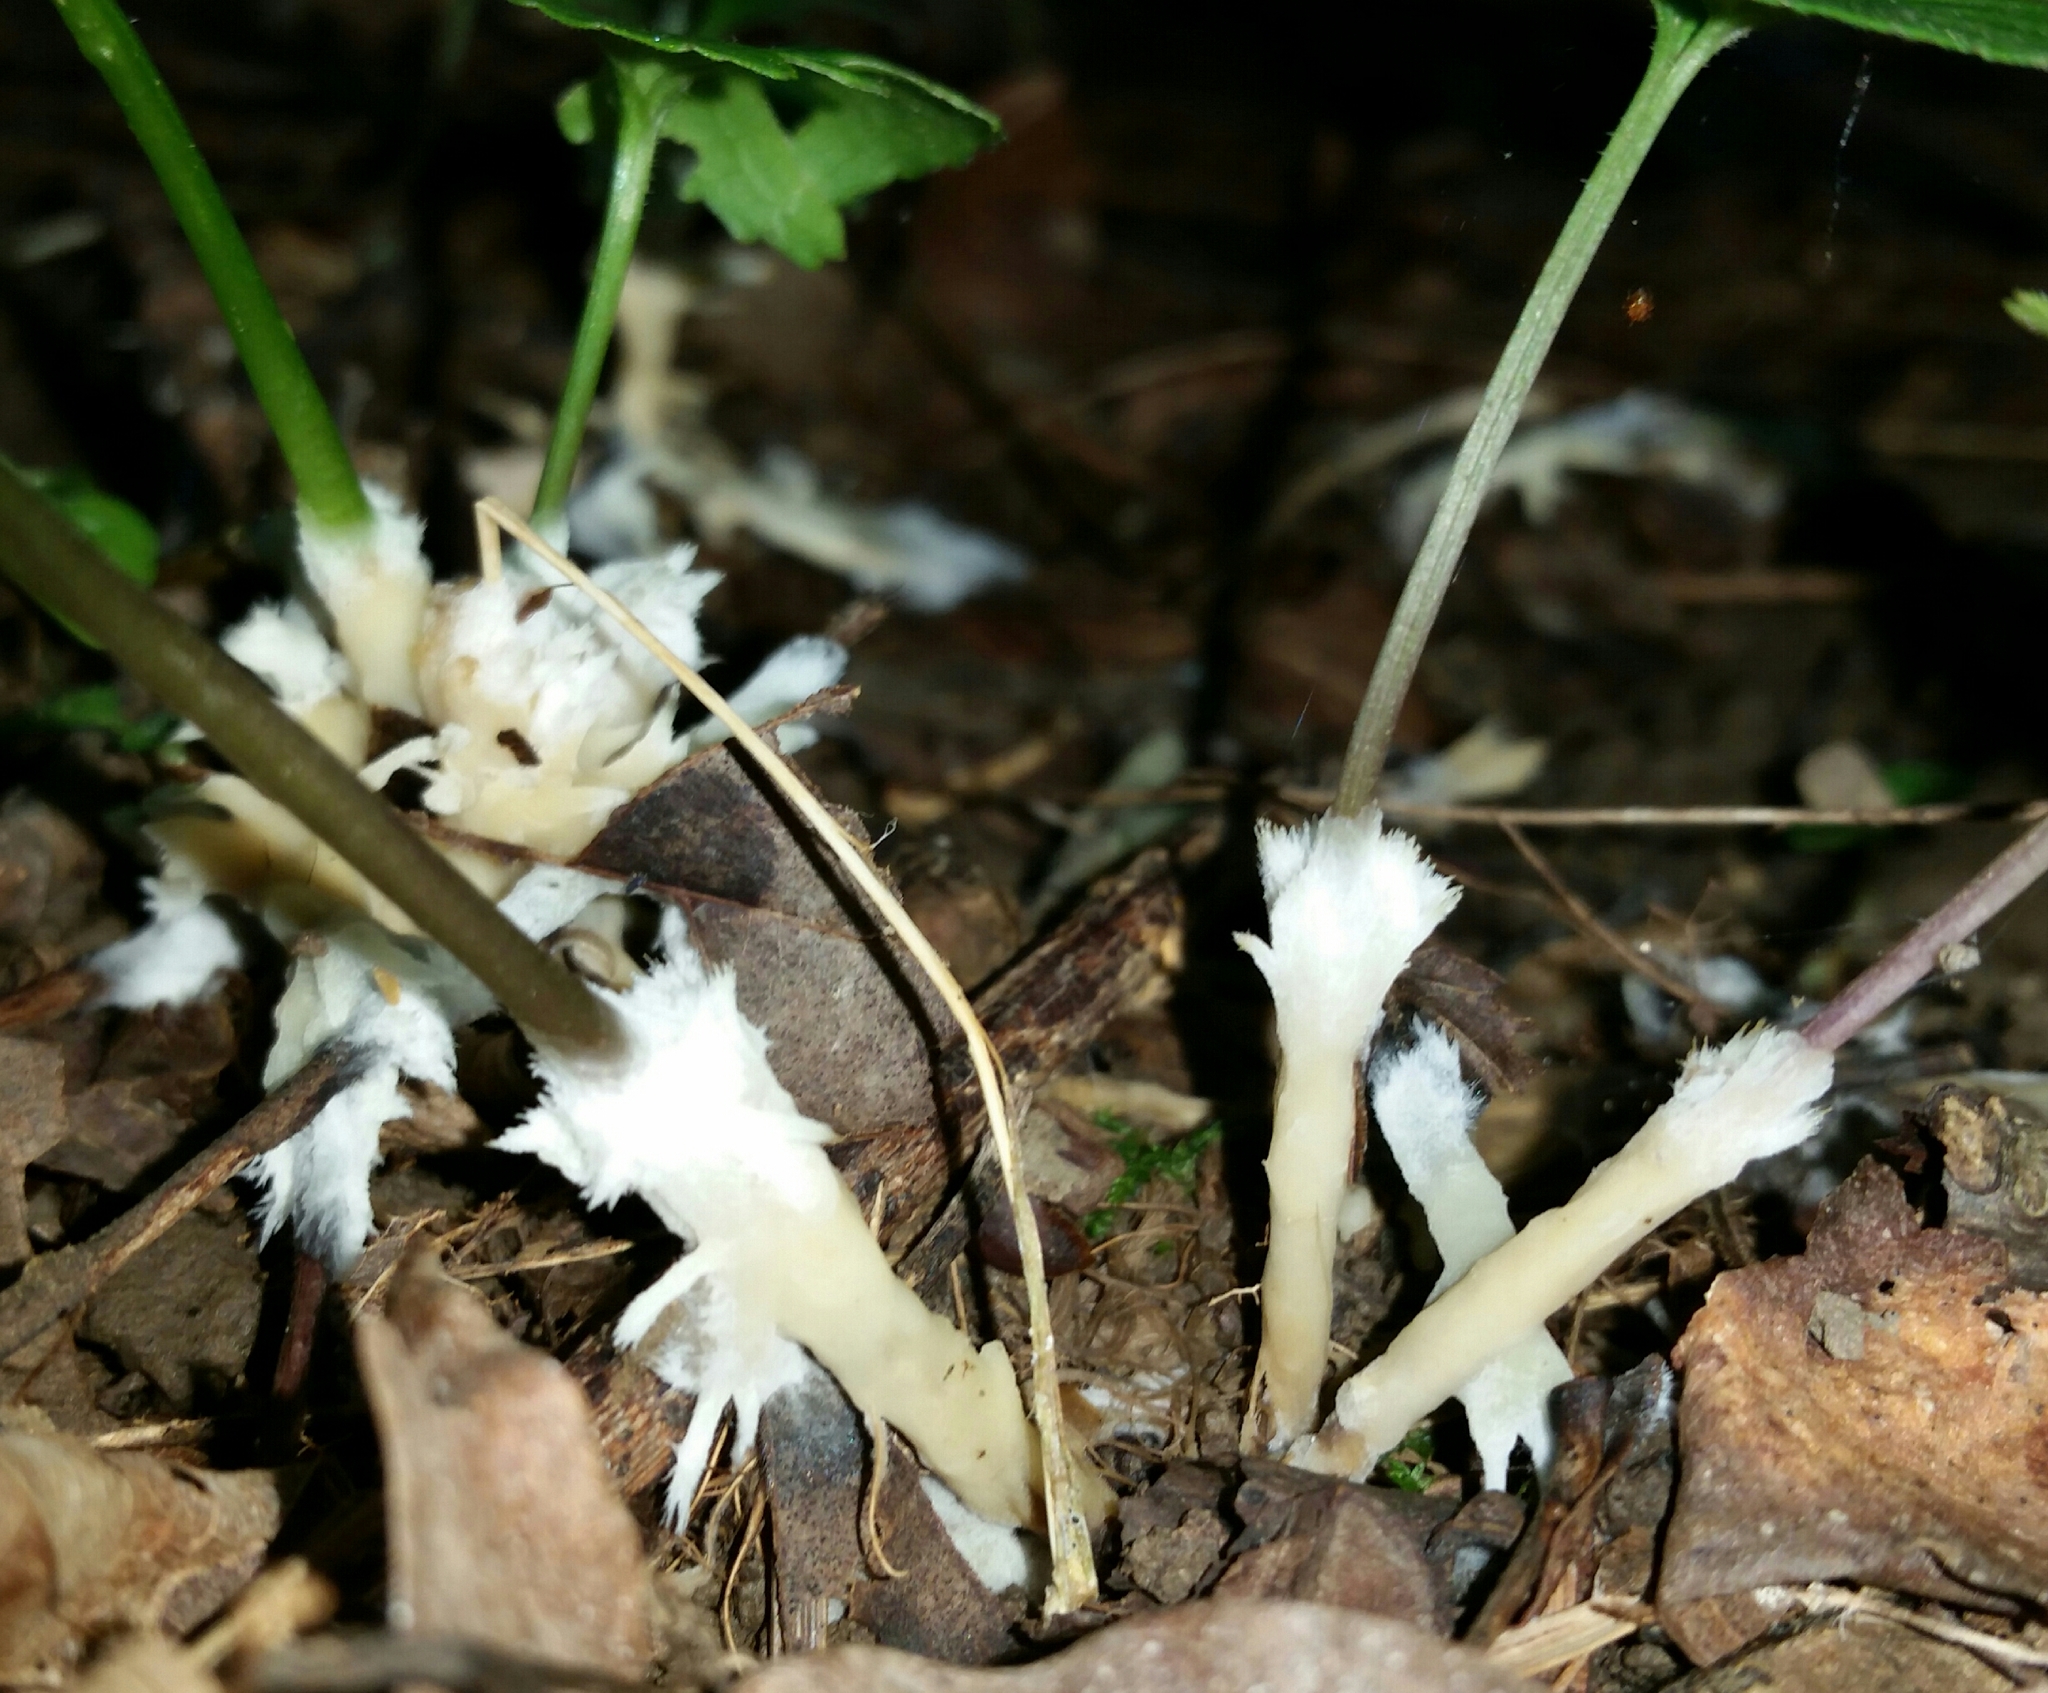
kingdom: Fungi
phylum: Basidiomycota
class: Agaricomycetes
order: Sebacinales
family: Sebacinaceae
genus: Sebacina
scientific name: Sebacina incrustans
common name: Enveloping crust
